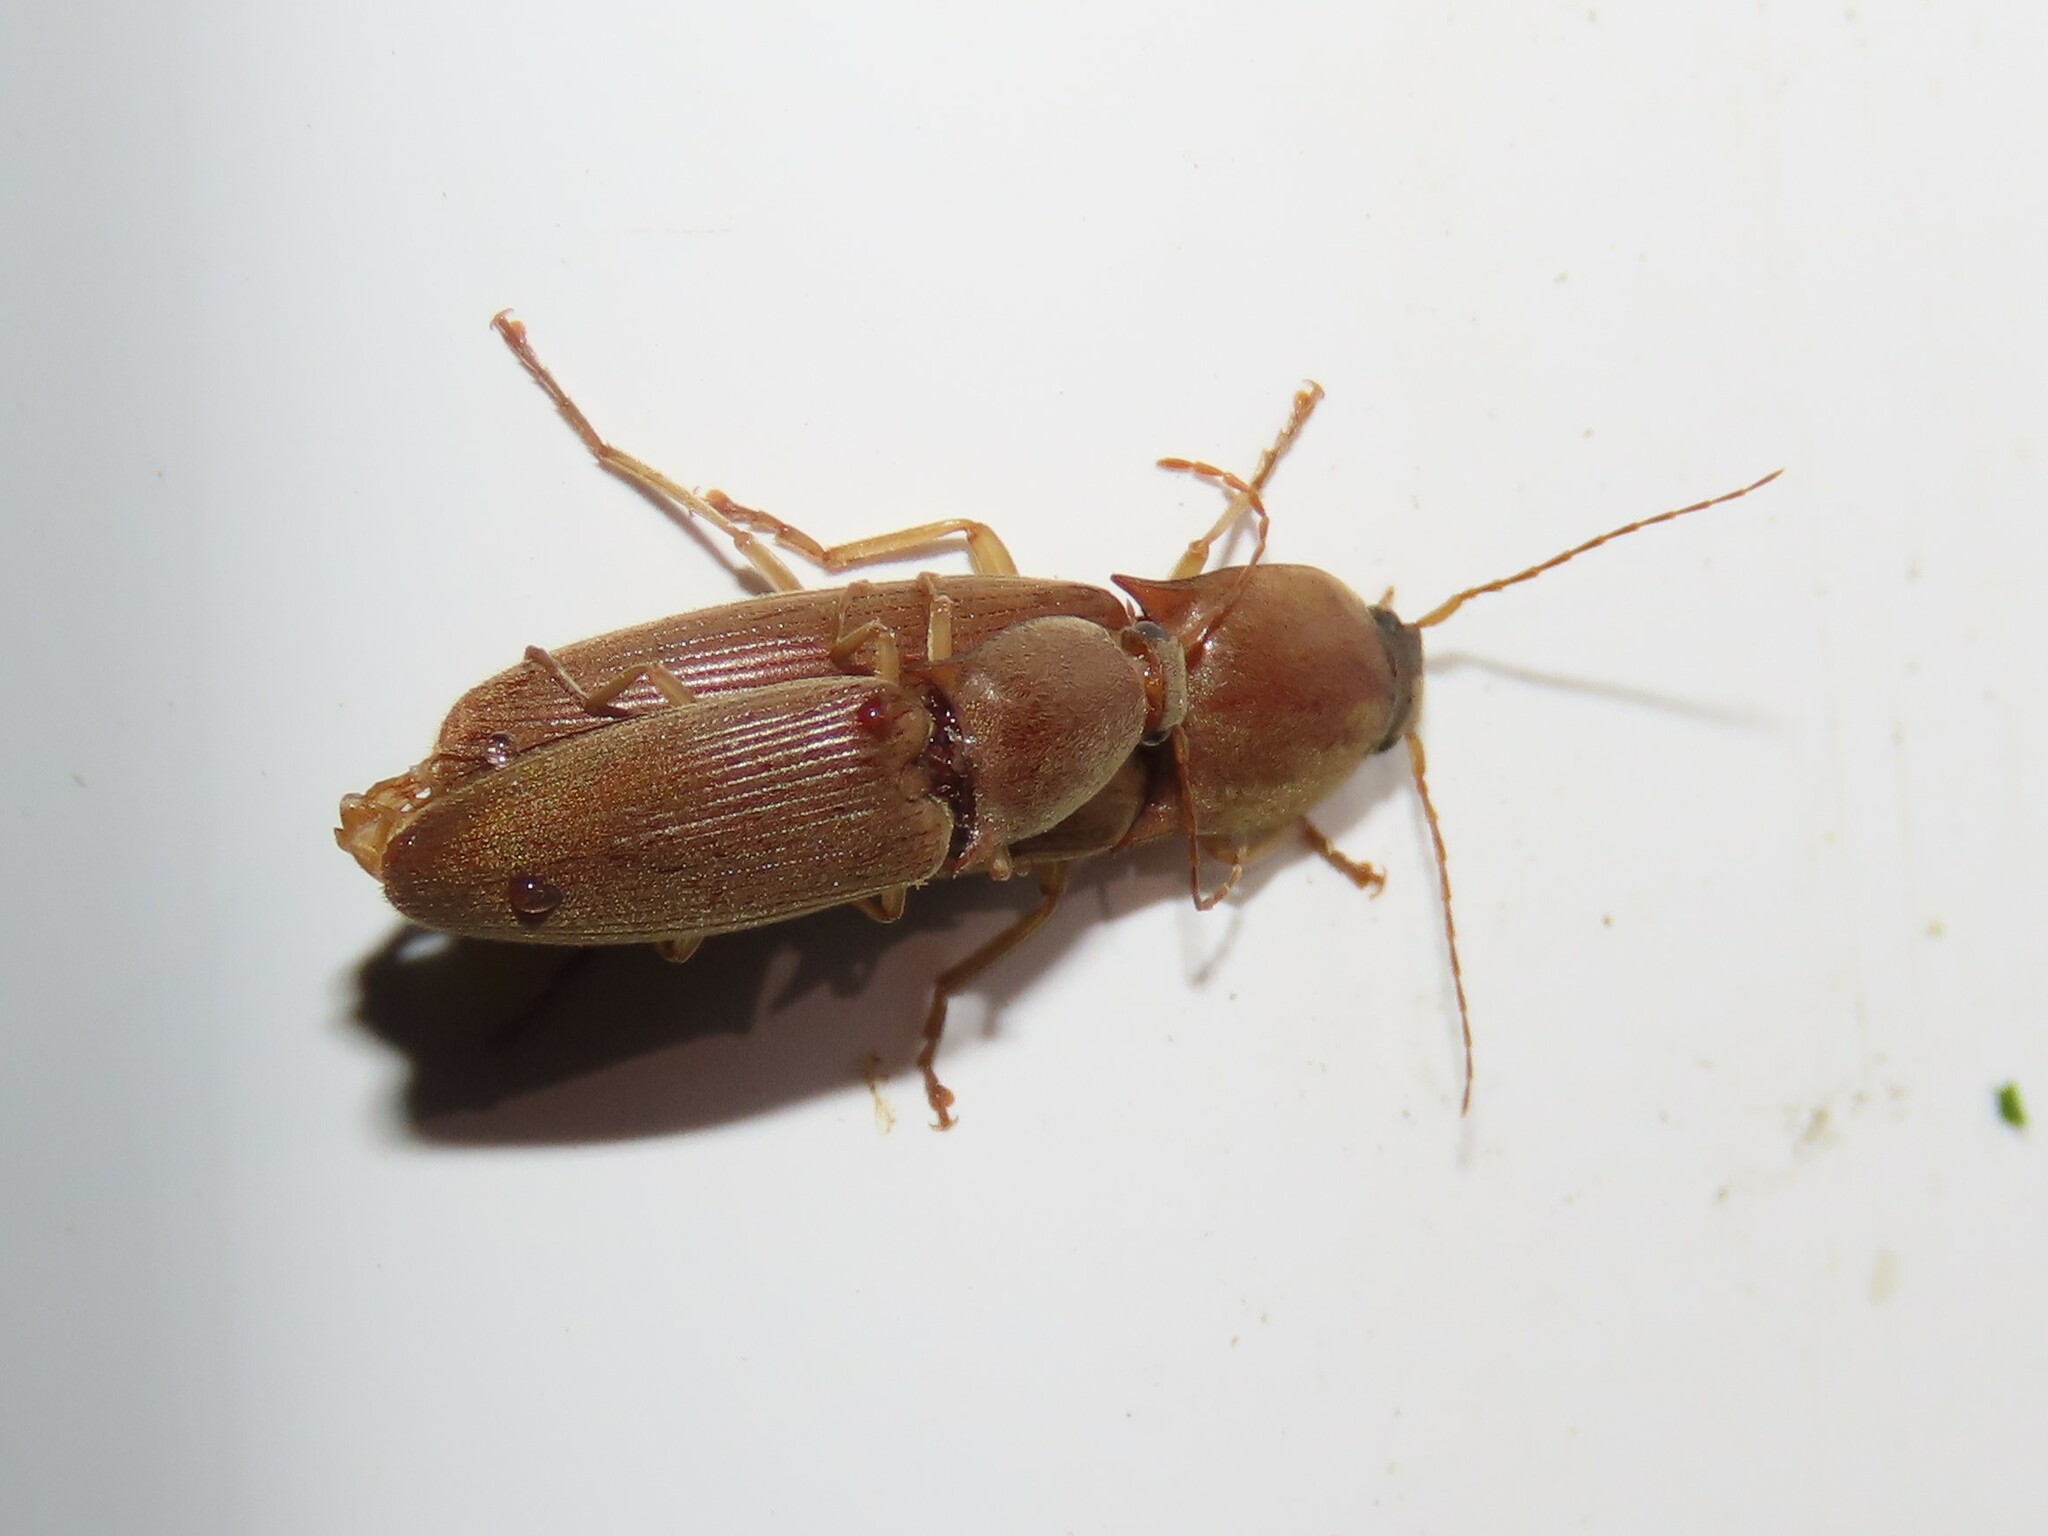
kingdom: Animalia
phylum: Arthropoda
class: Insecta
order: Coleoptera
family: Elateridae
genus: Monocrepidius
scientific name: Monocrepidius lividus
